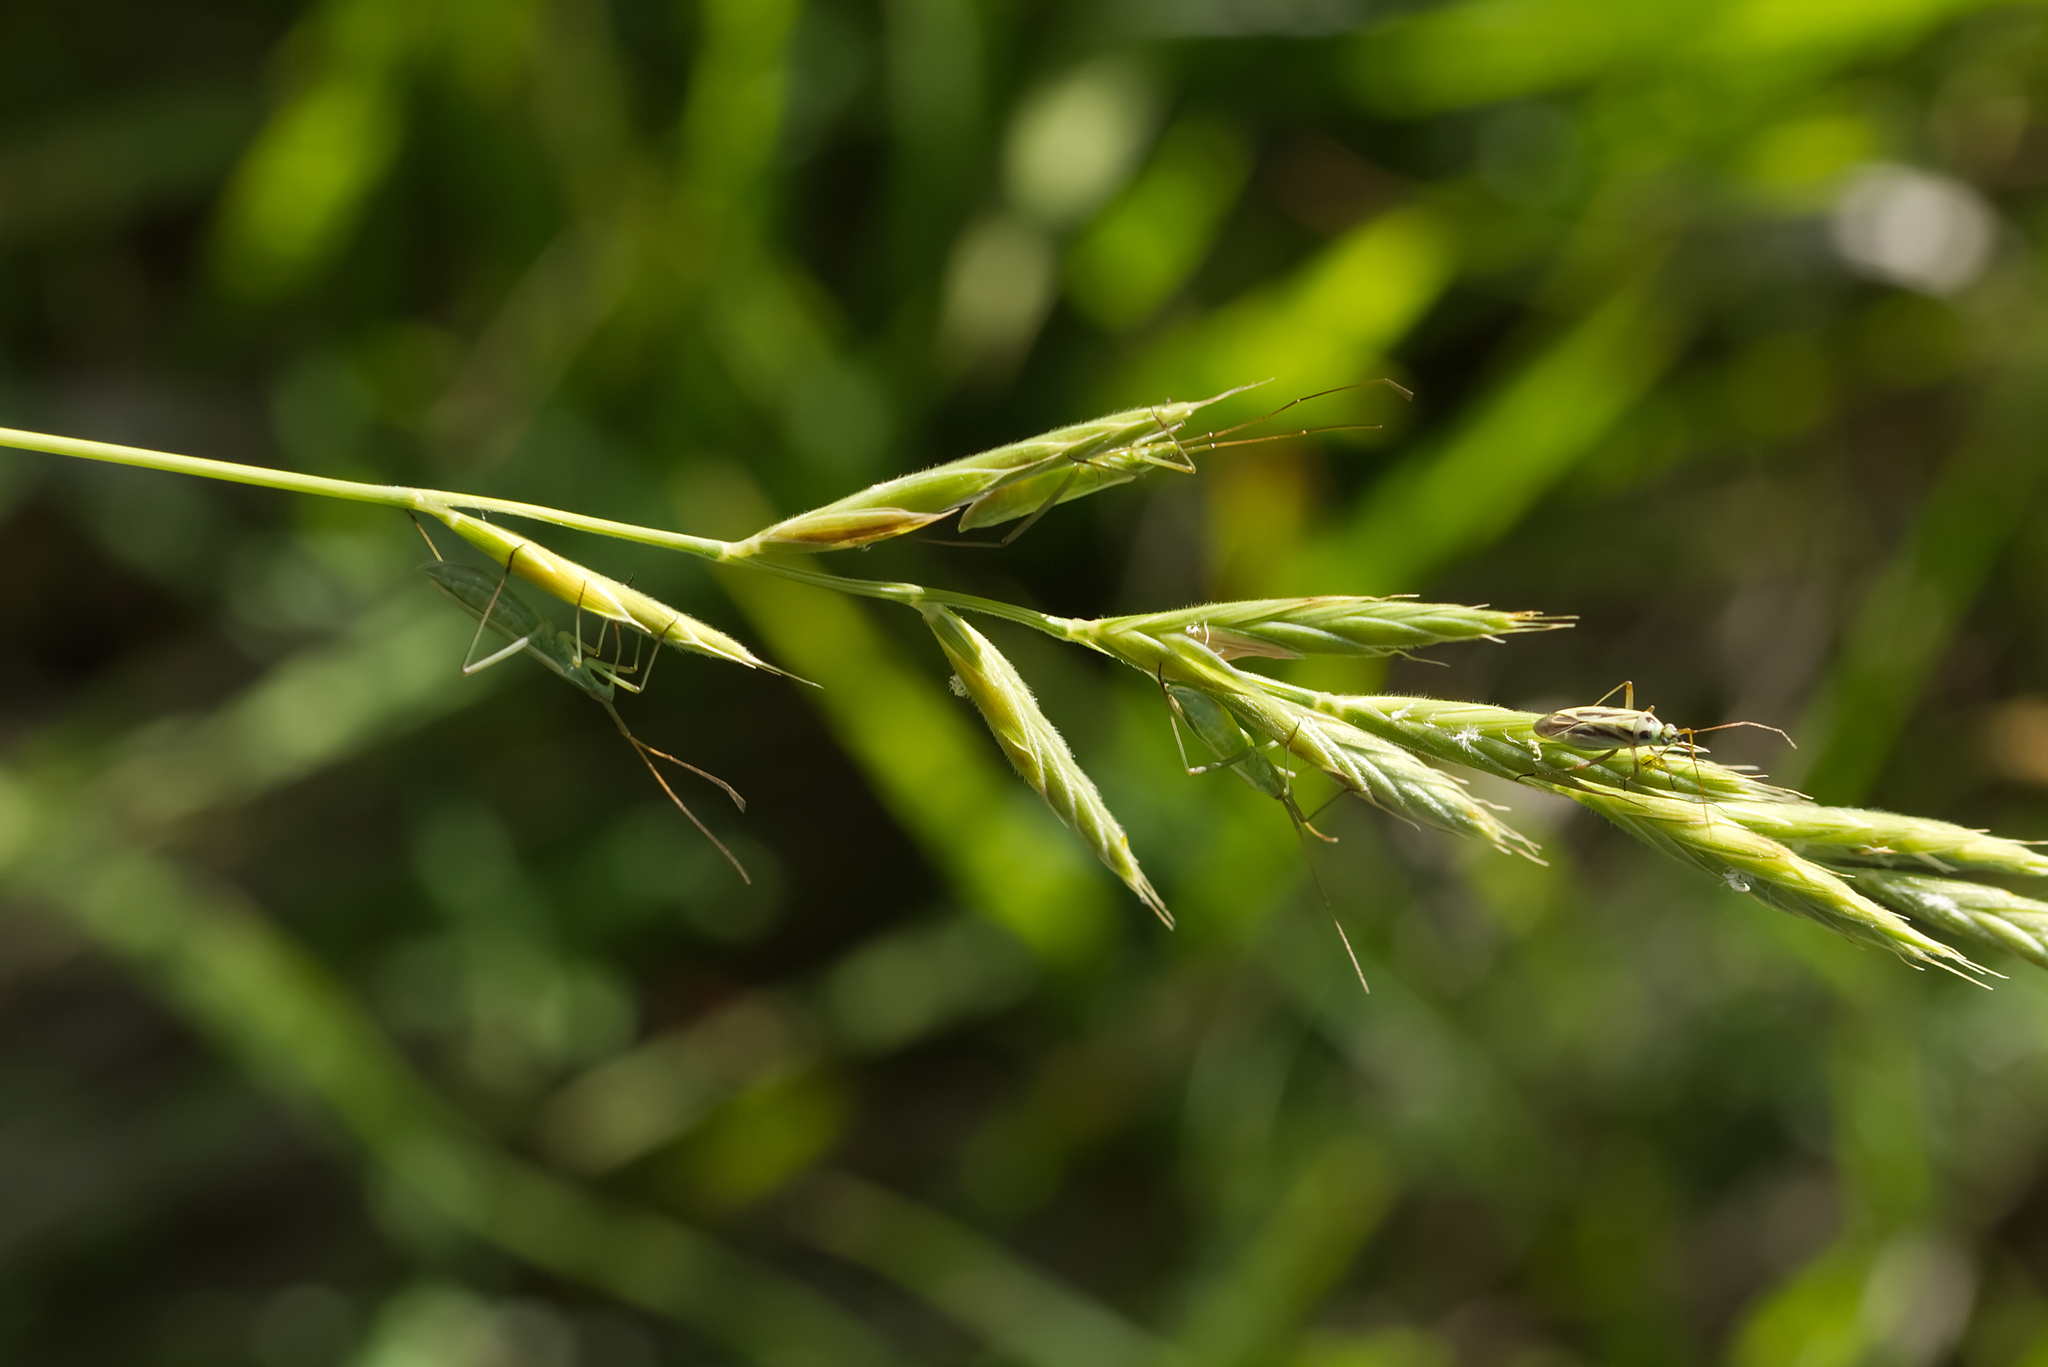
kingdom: Animalia
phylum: Arthropoda
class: Insecta
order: Hemiptera
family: Miridae
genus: Megaloceroea
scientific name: Megaloceroea recticornis
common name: Plant bug
